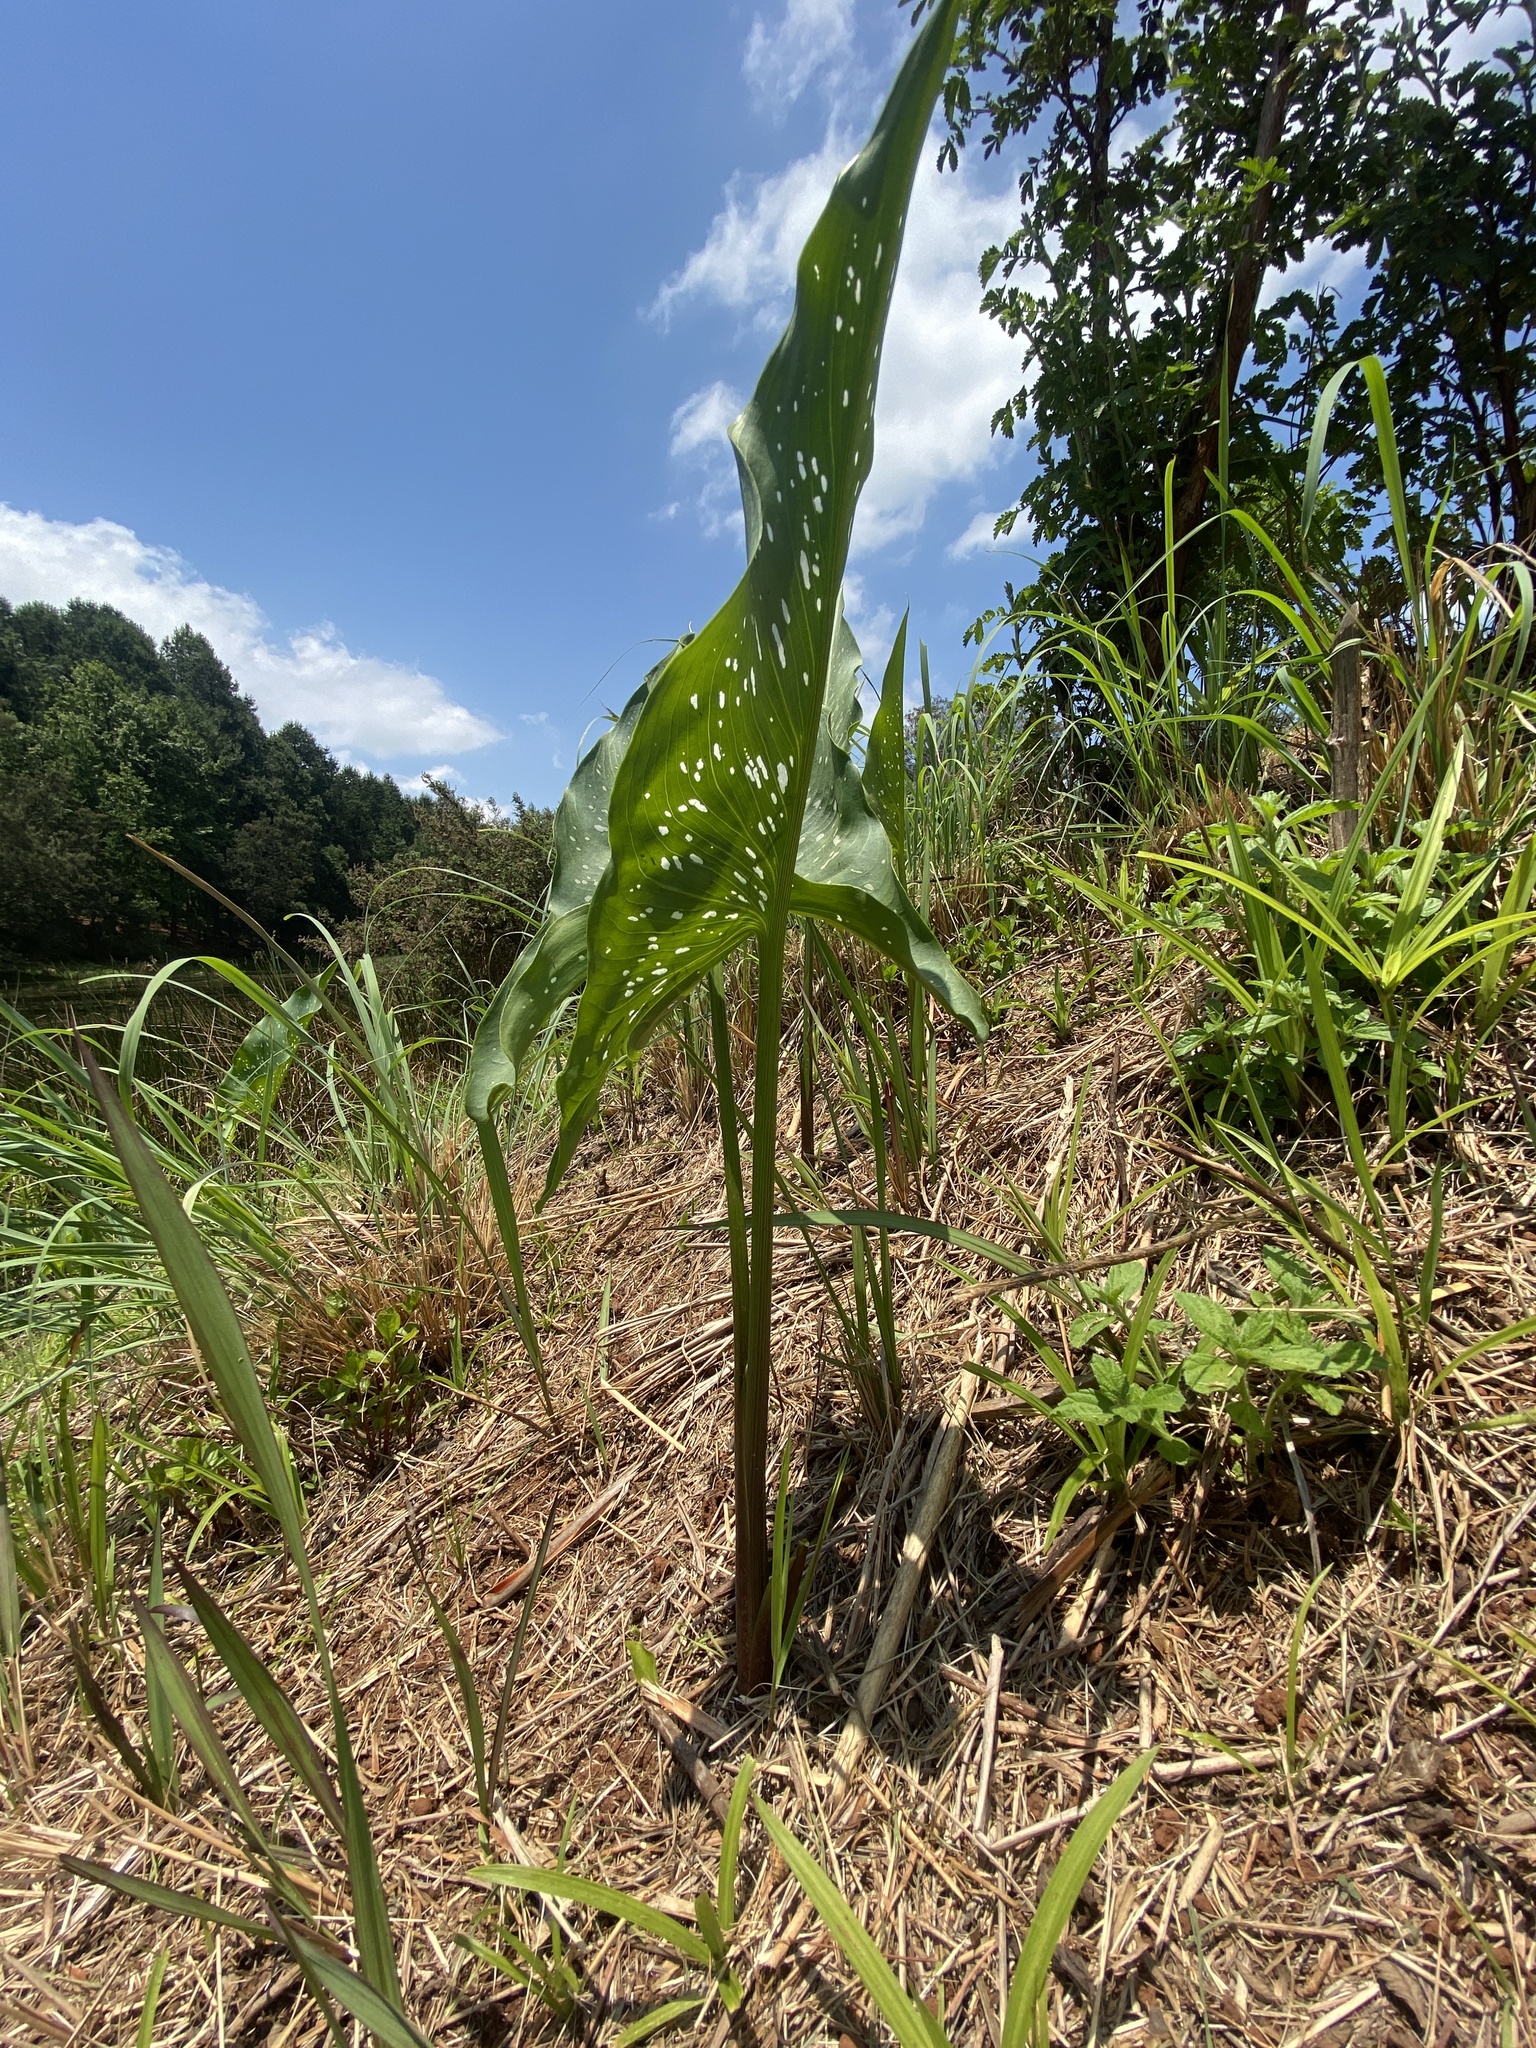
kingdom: Plantae
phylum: Tracheophyta
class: Liliopsida
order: Alismatales
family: Araceae
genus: Zantedeschia
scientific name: Zantedeschia albomaculata
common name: Spotted calla lily
